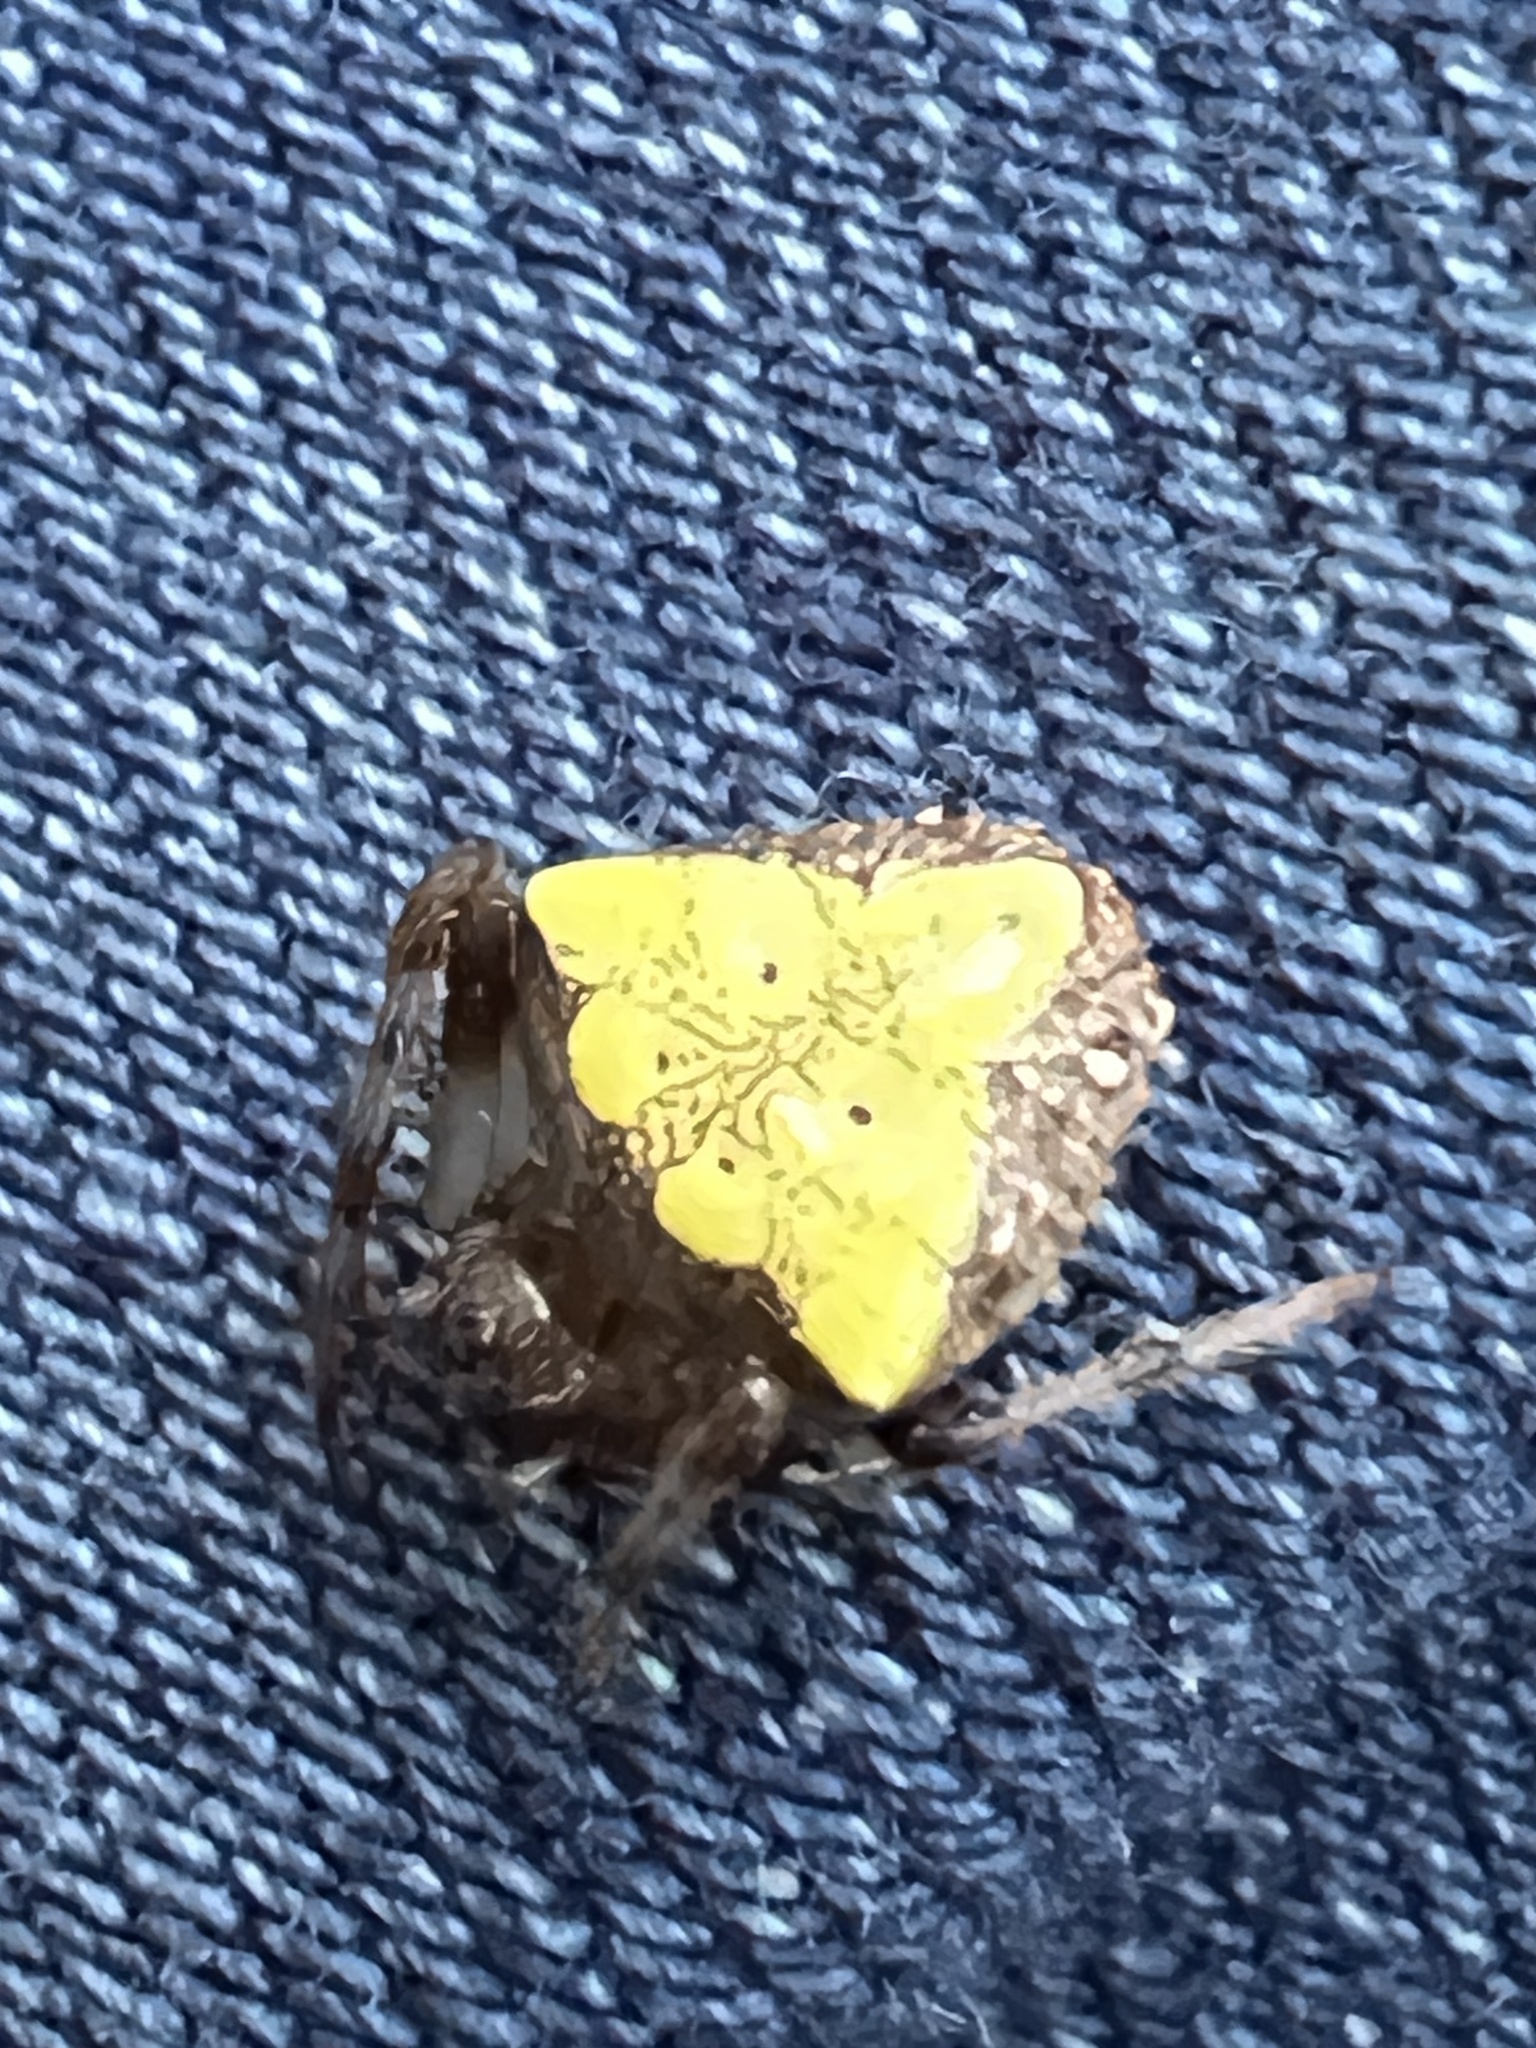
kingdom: Animalia
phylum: Arthropoda
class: Arachnida
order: Araneae
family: Araneidae
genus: Verrucosa
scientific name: Verrucosa arenata
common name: Orb weavers
